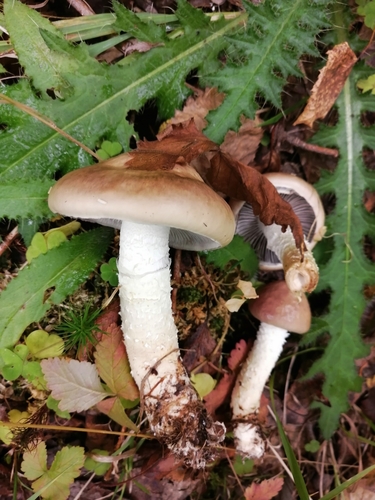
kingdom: Fungi
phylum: Basidiomycota
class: Agaricomycetes
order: Agaricales
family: Strophariaceae
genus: Stropharia
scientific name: Stropharia hornemannii
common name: Conifer roundhead
